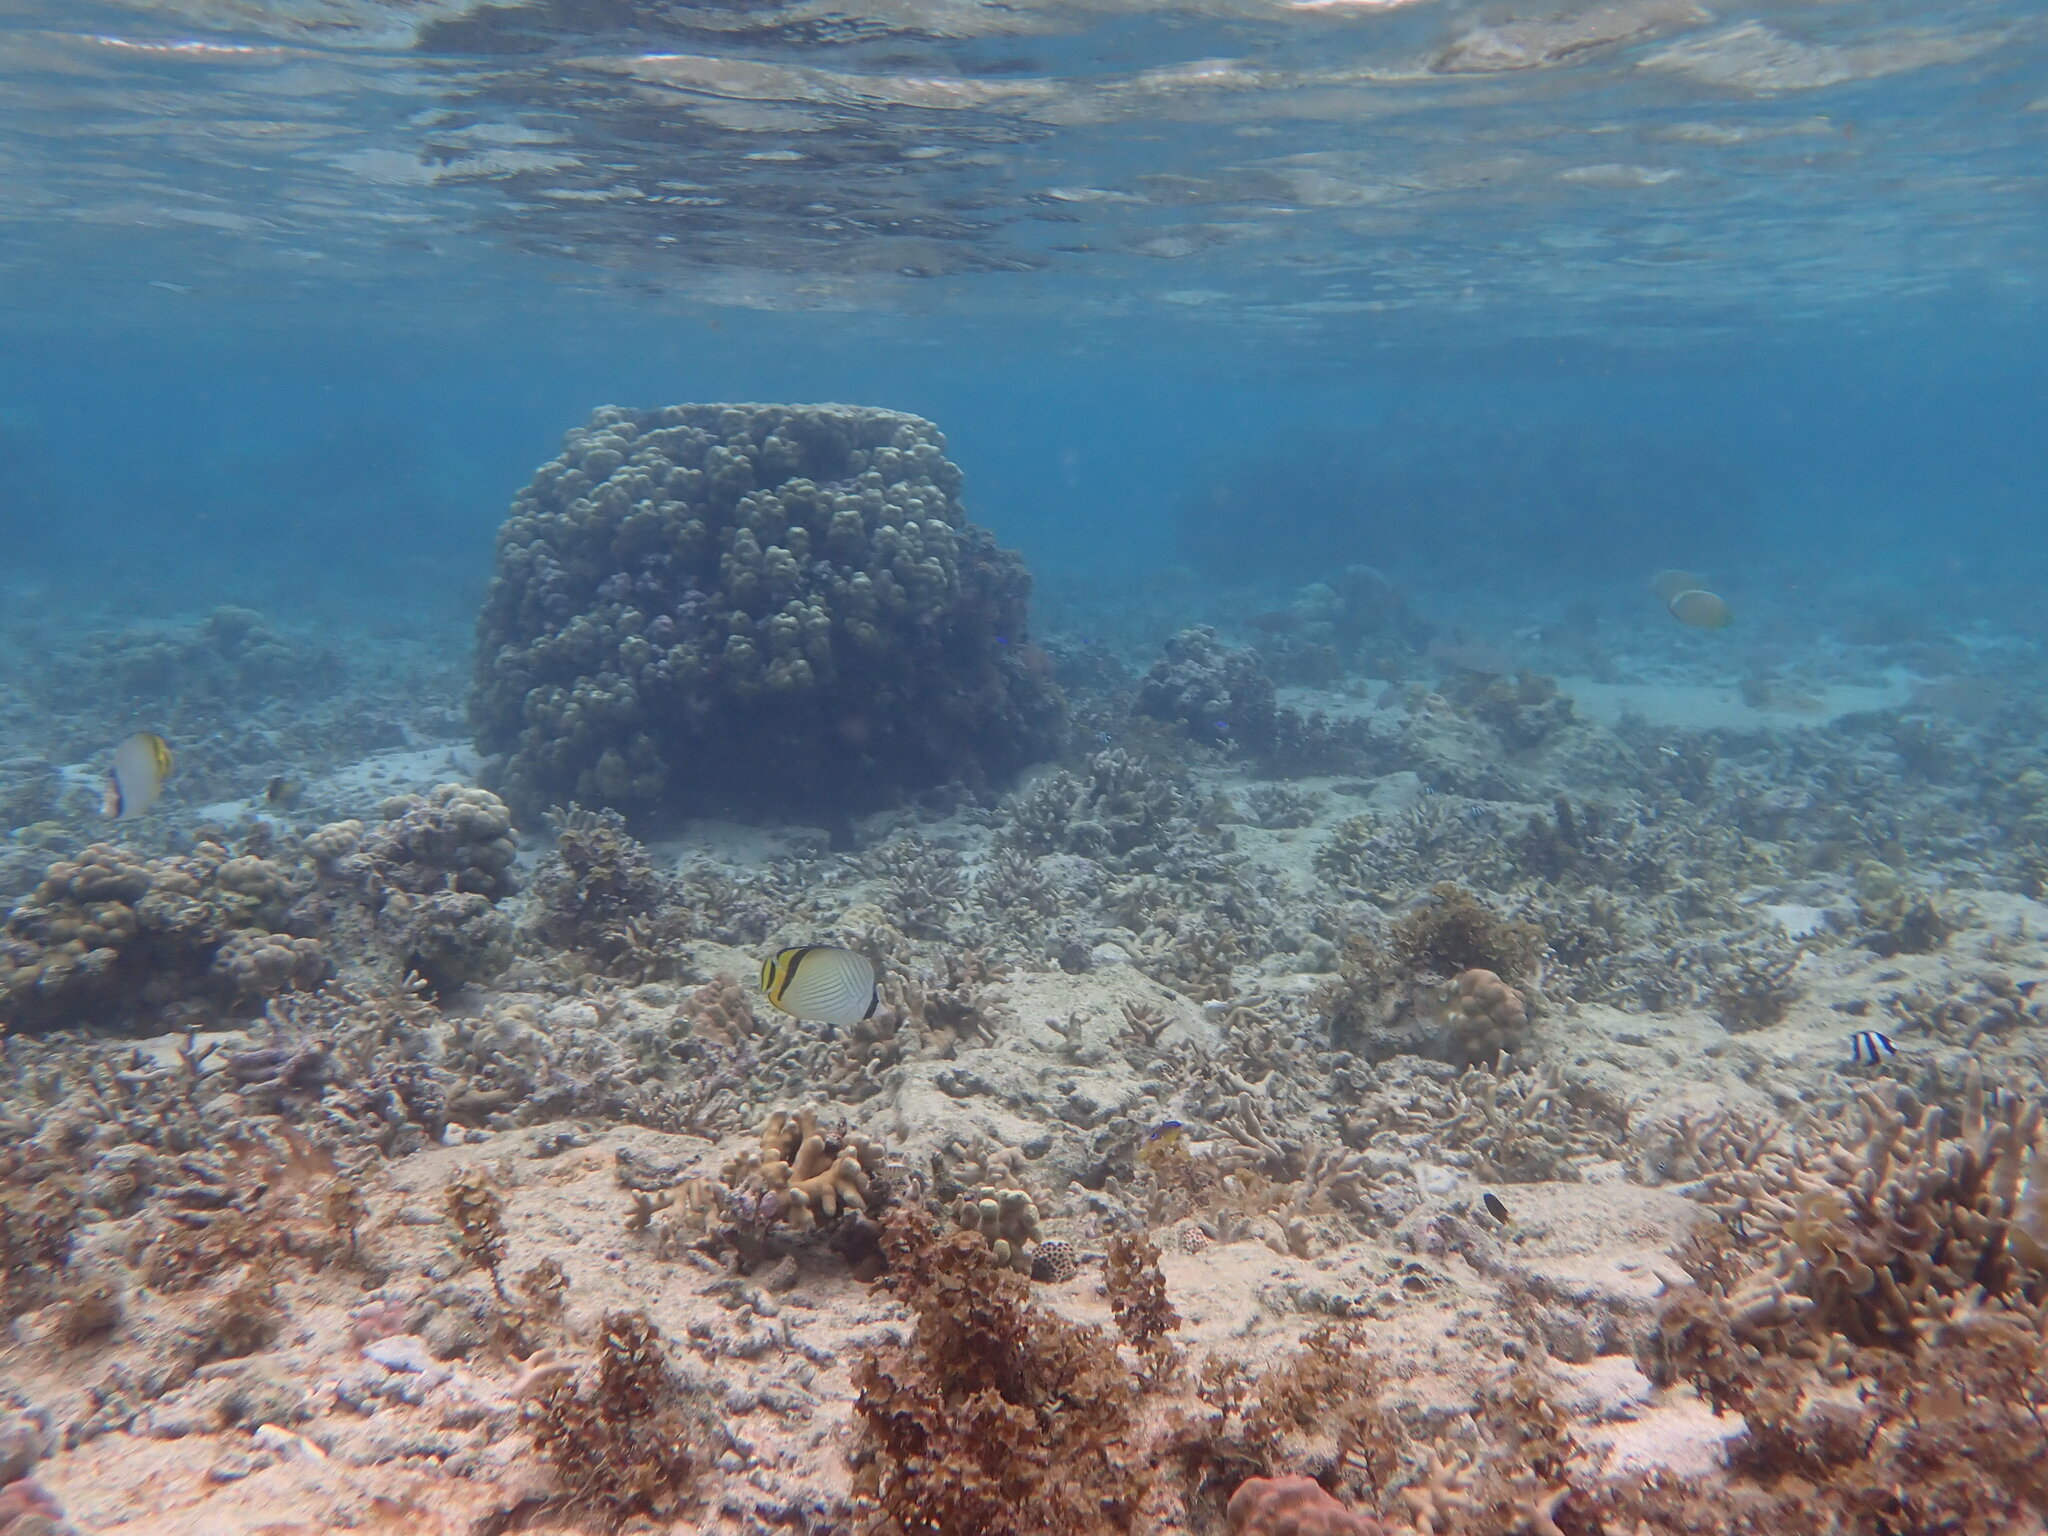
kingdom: Animalia
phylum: Chordata
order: Perciformes
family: Chaetodontidae
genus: Chaetodon
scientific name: Chaetodon vagabundus
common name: Vagabond butterflyfish
